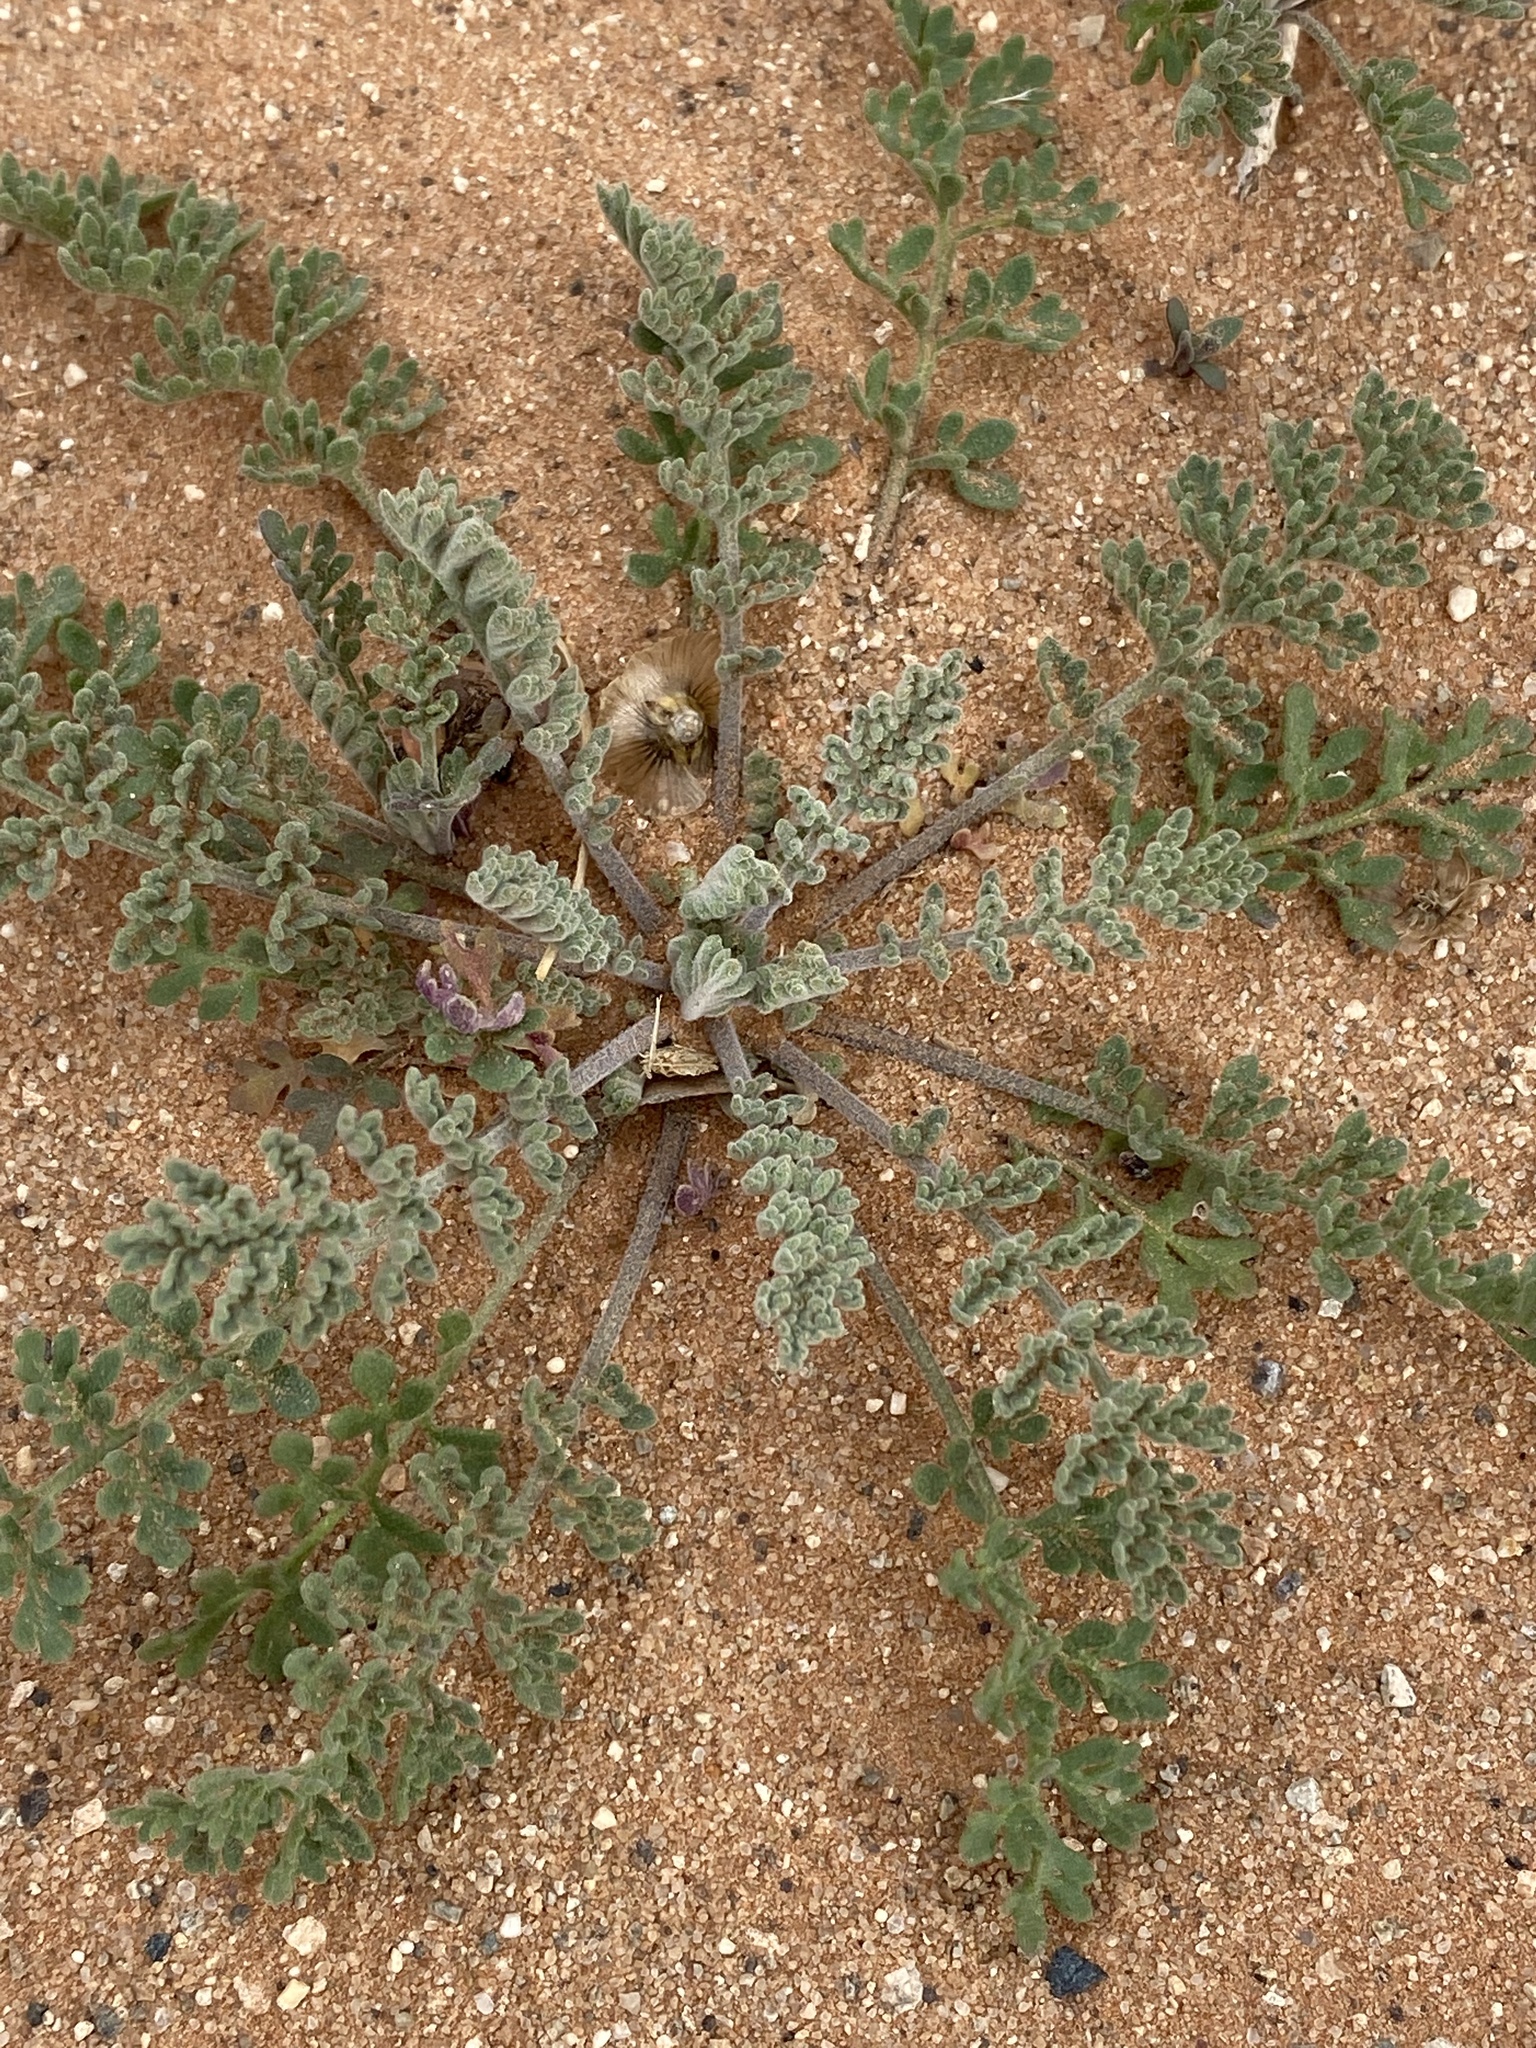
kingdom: Plantae
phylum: Tracheophyta
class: Magnoliopsida
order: Brassicales
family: Brassicaceae
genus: Descurainia
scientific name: Descurainia pinnata
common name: Western tansy mustard
